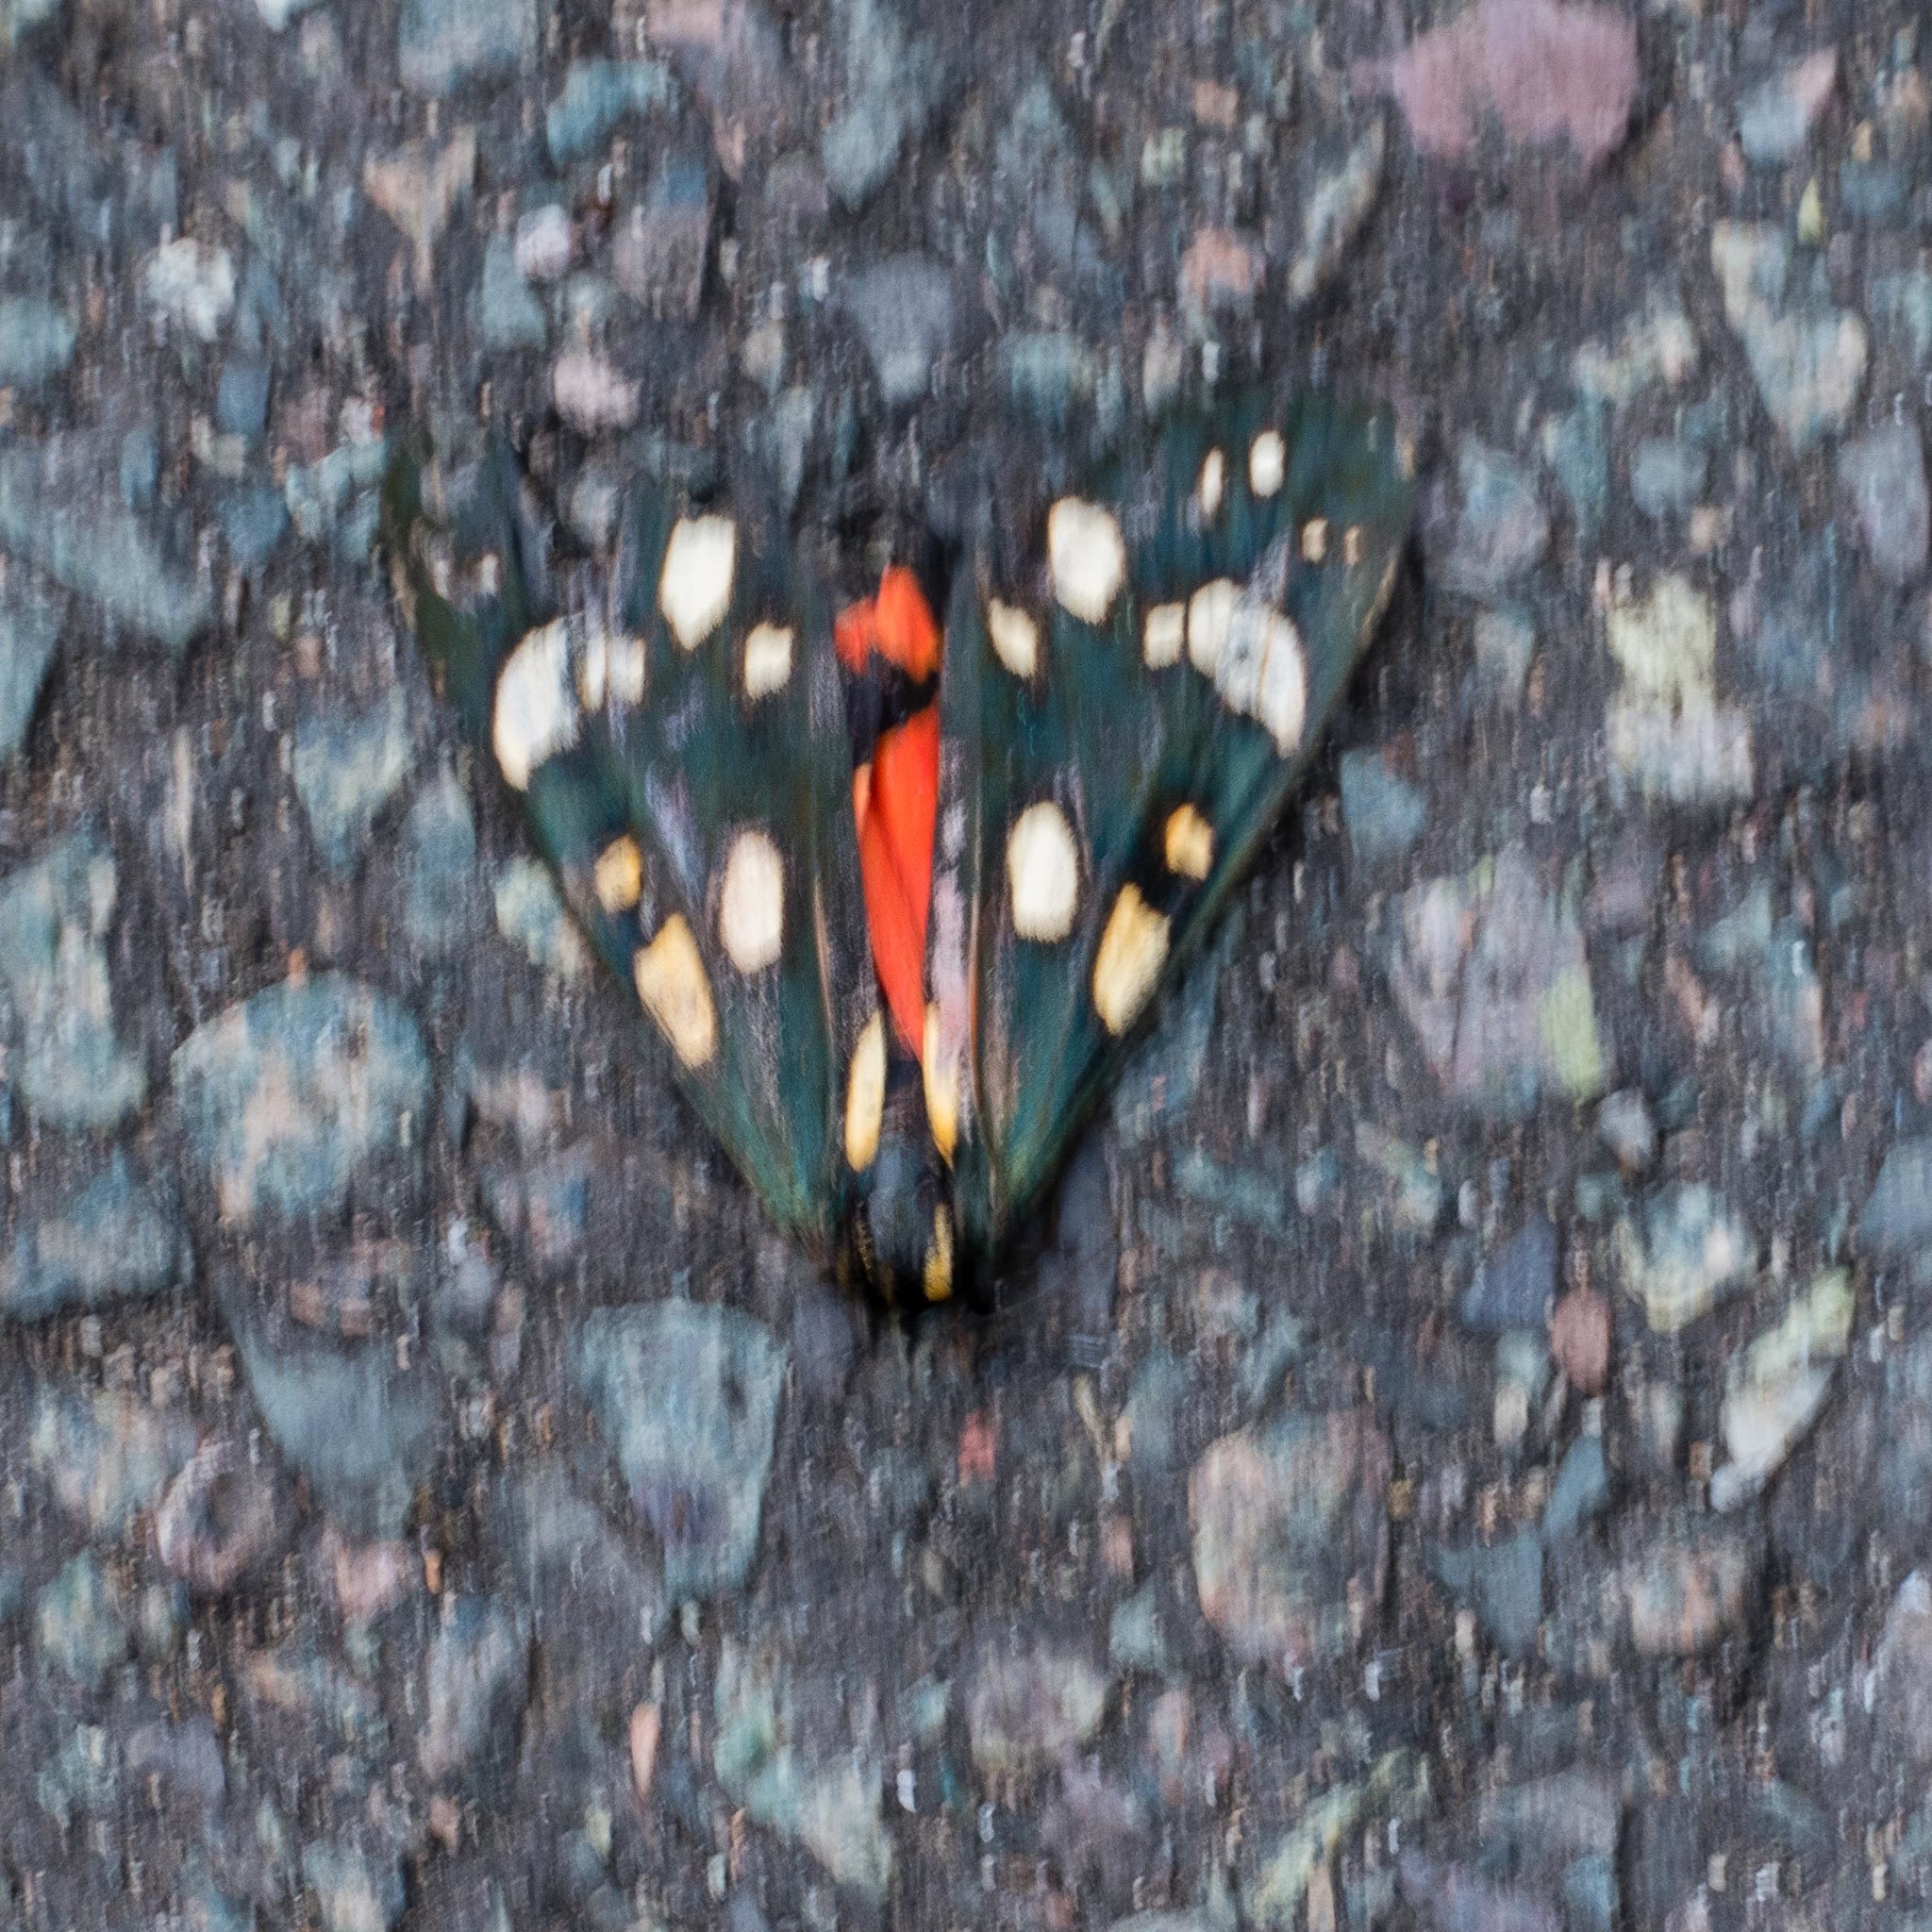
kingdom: Animalia
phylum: Arthropoda
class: Insecta
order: Lepidoptera
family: Erebidae
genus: Callimorpha
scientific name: Callimorpha dominula
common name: Scarlet tiger
